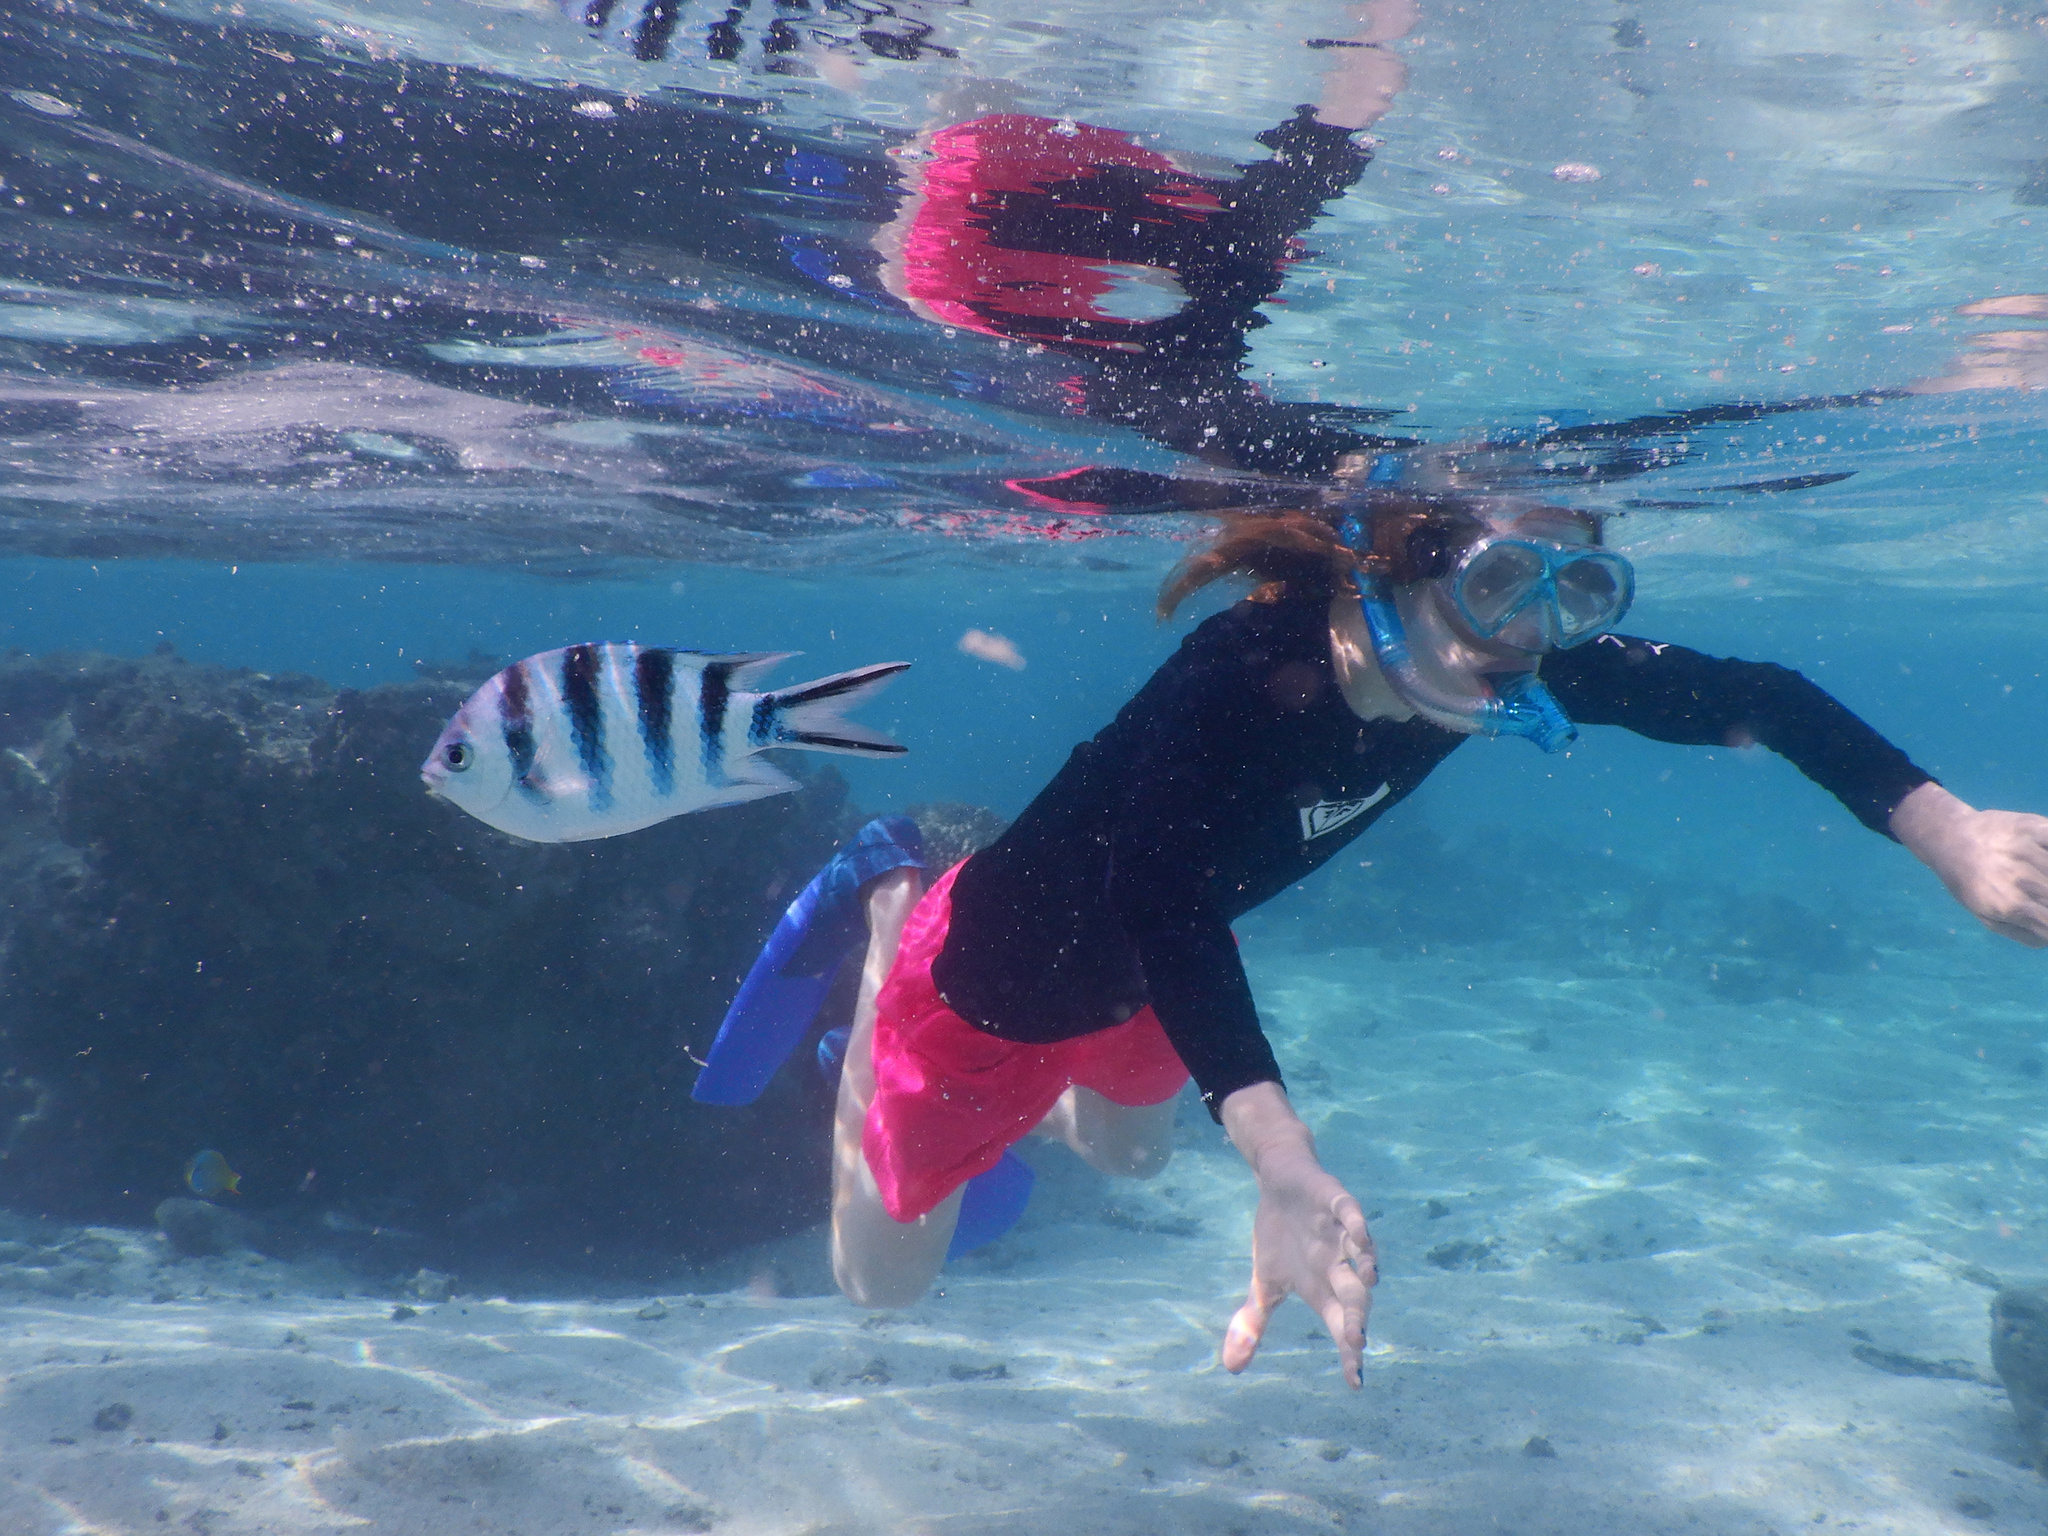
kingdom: Animalia
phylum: Chordata
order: Perciformes
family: Pomacentridae
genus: Abudefduf
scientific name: Abudefduf sexfasciatus
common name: Scissortail sergeant
